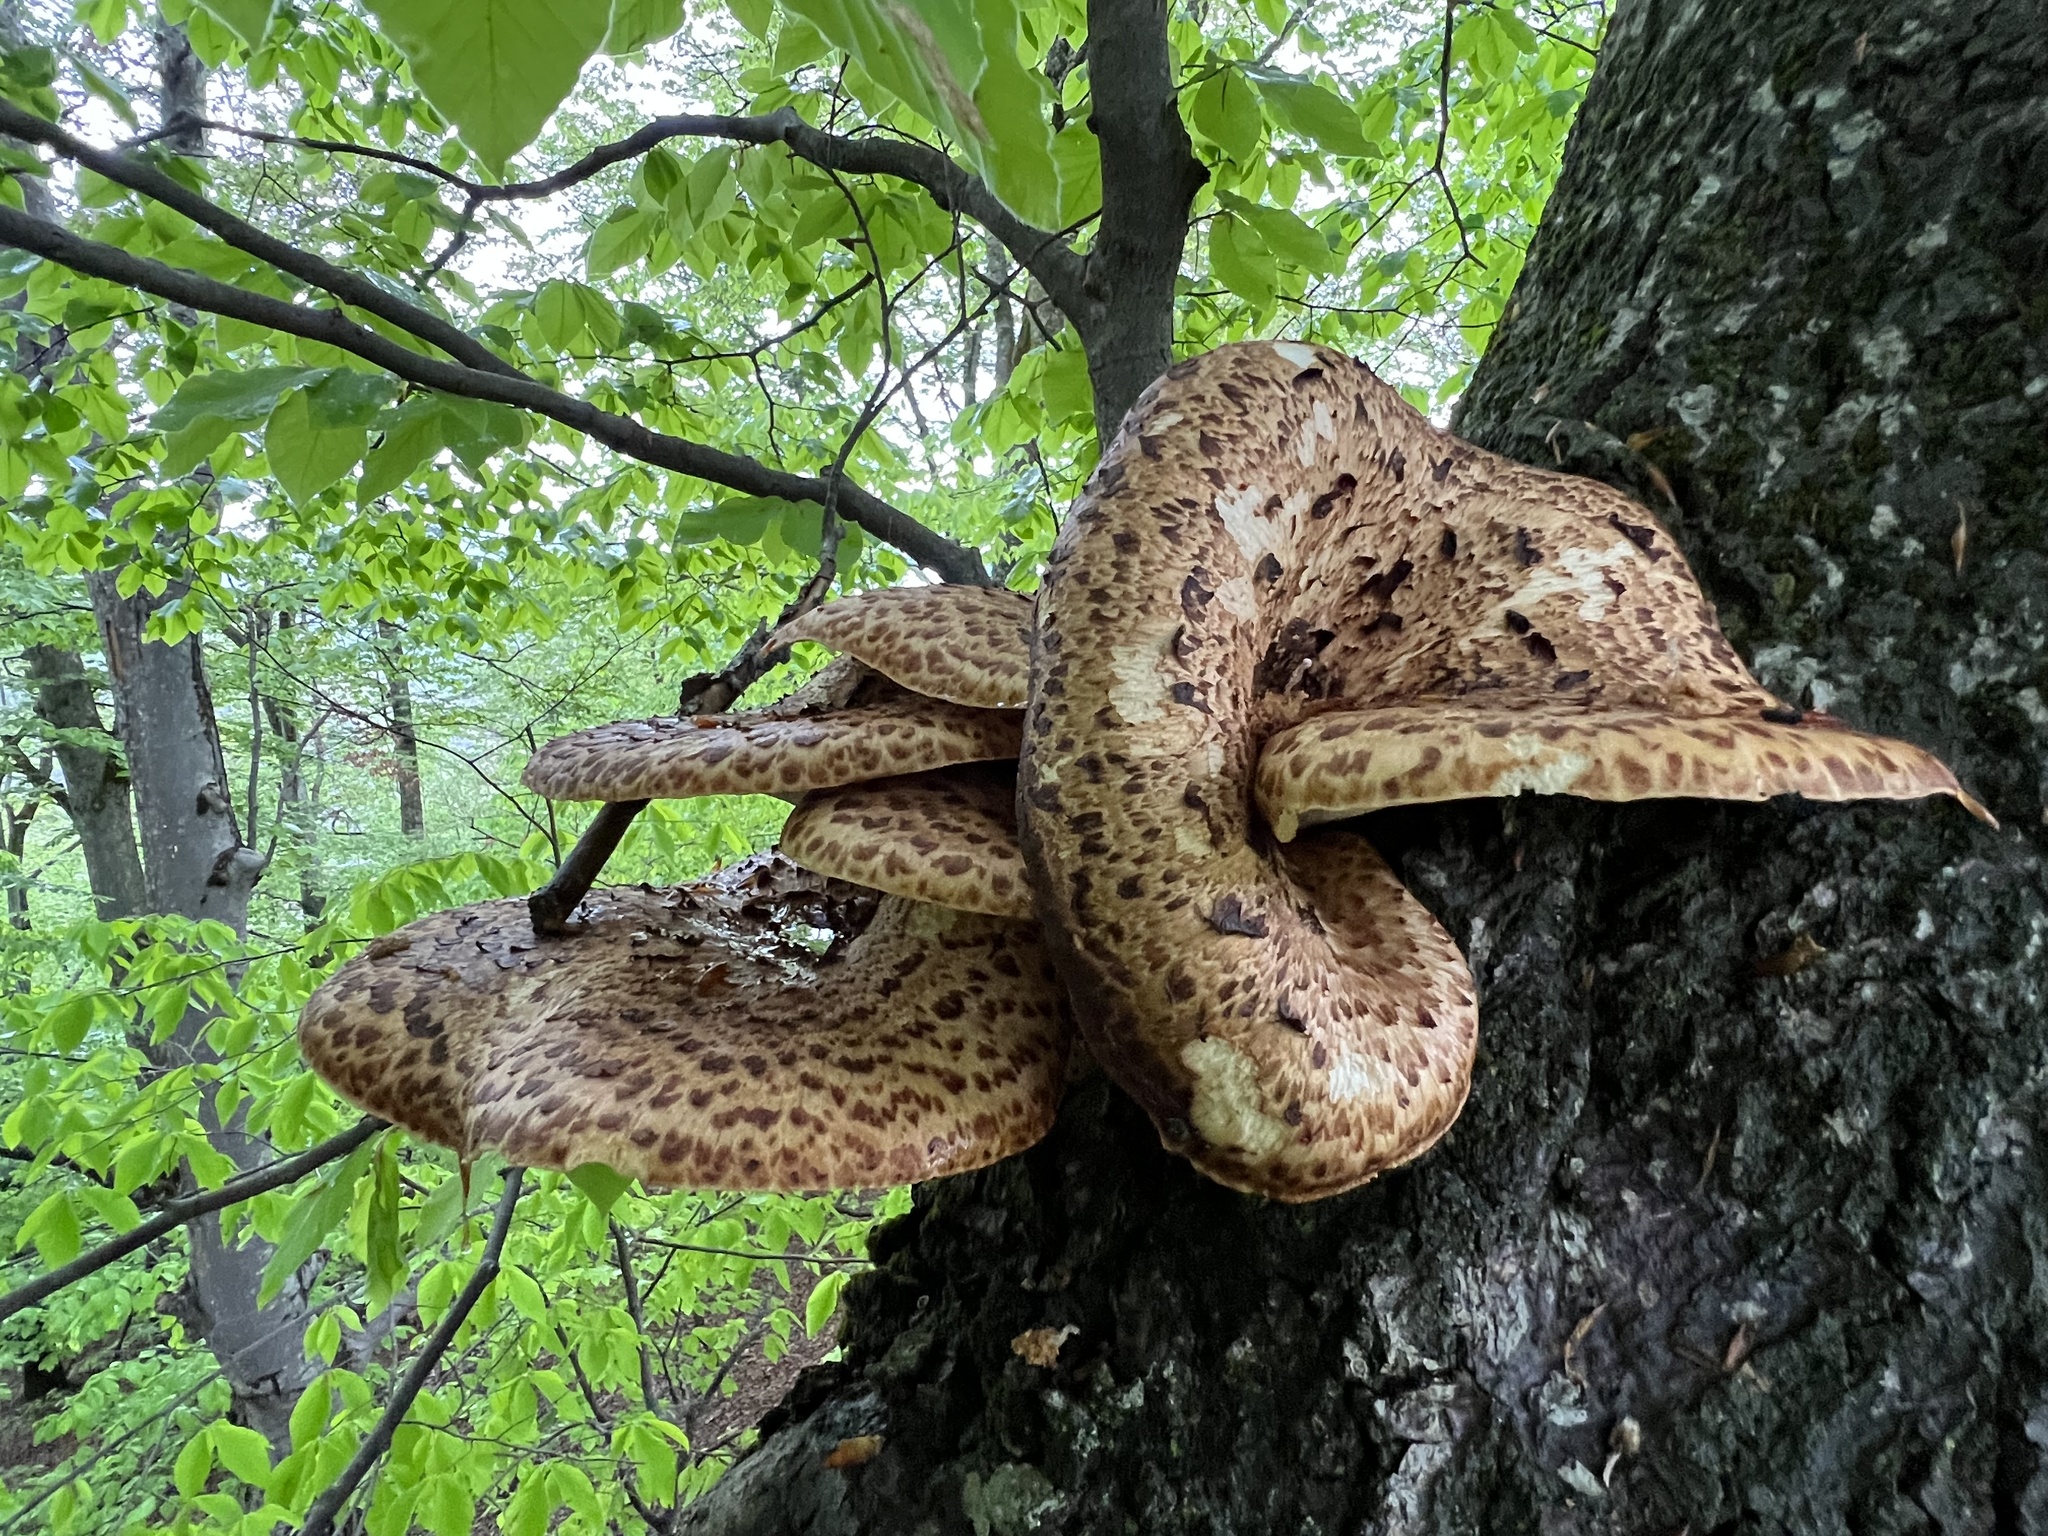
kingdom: Fungi
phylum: Basidiomycota
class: Agaricomycetes
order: Polyporales
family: Polyporaceae
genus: Cerioporus
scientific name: Cerioporus squamosus
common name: Dryad's saddle
